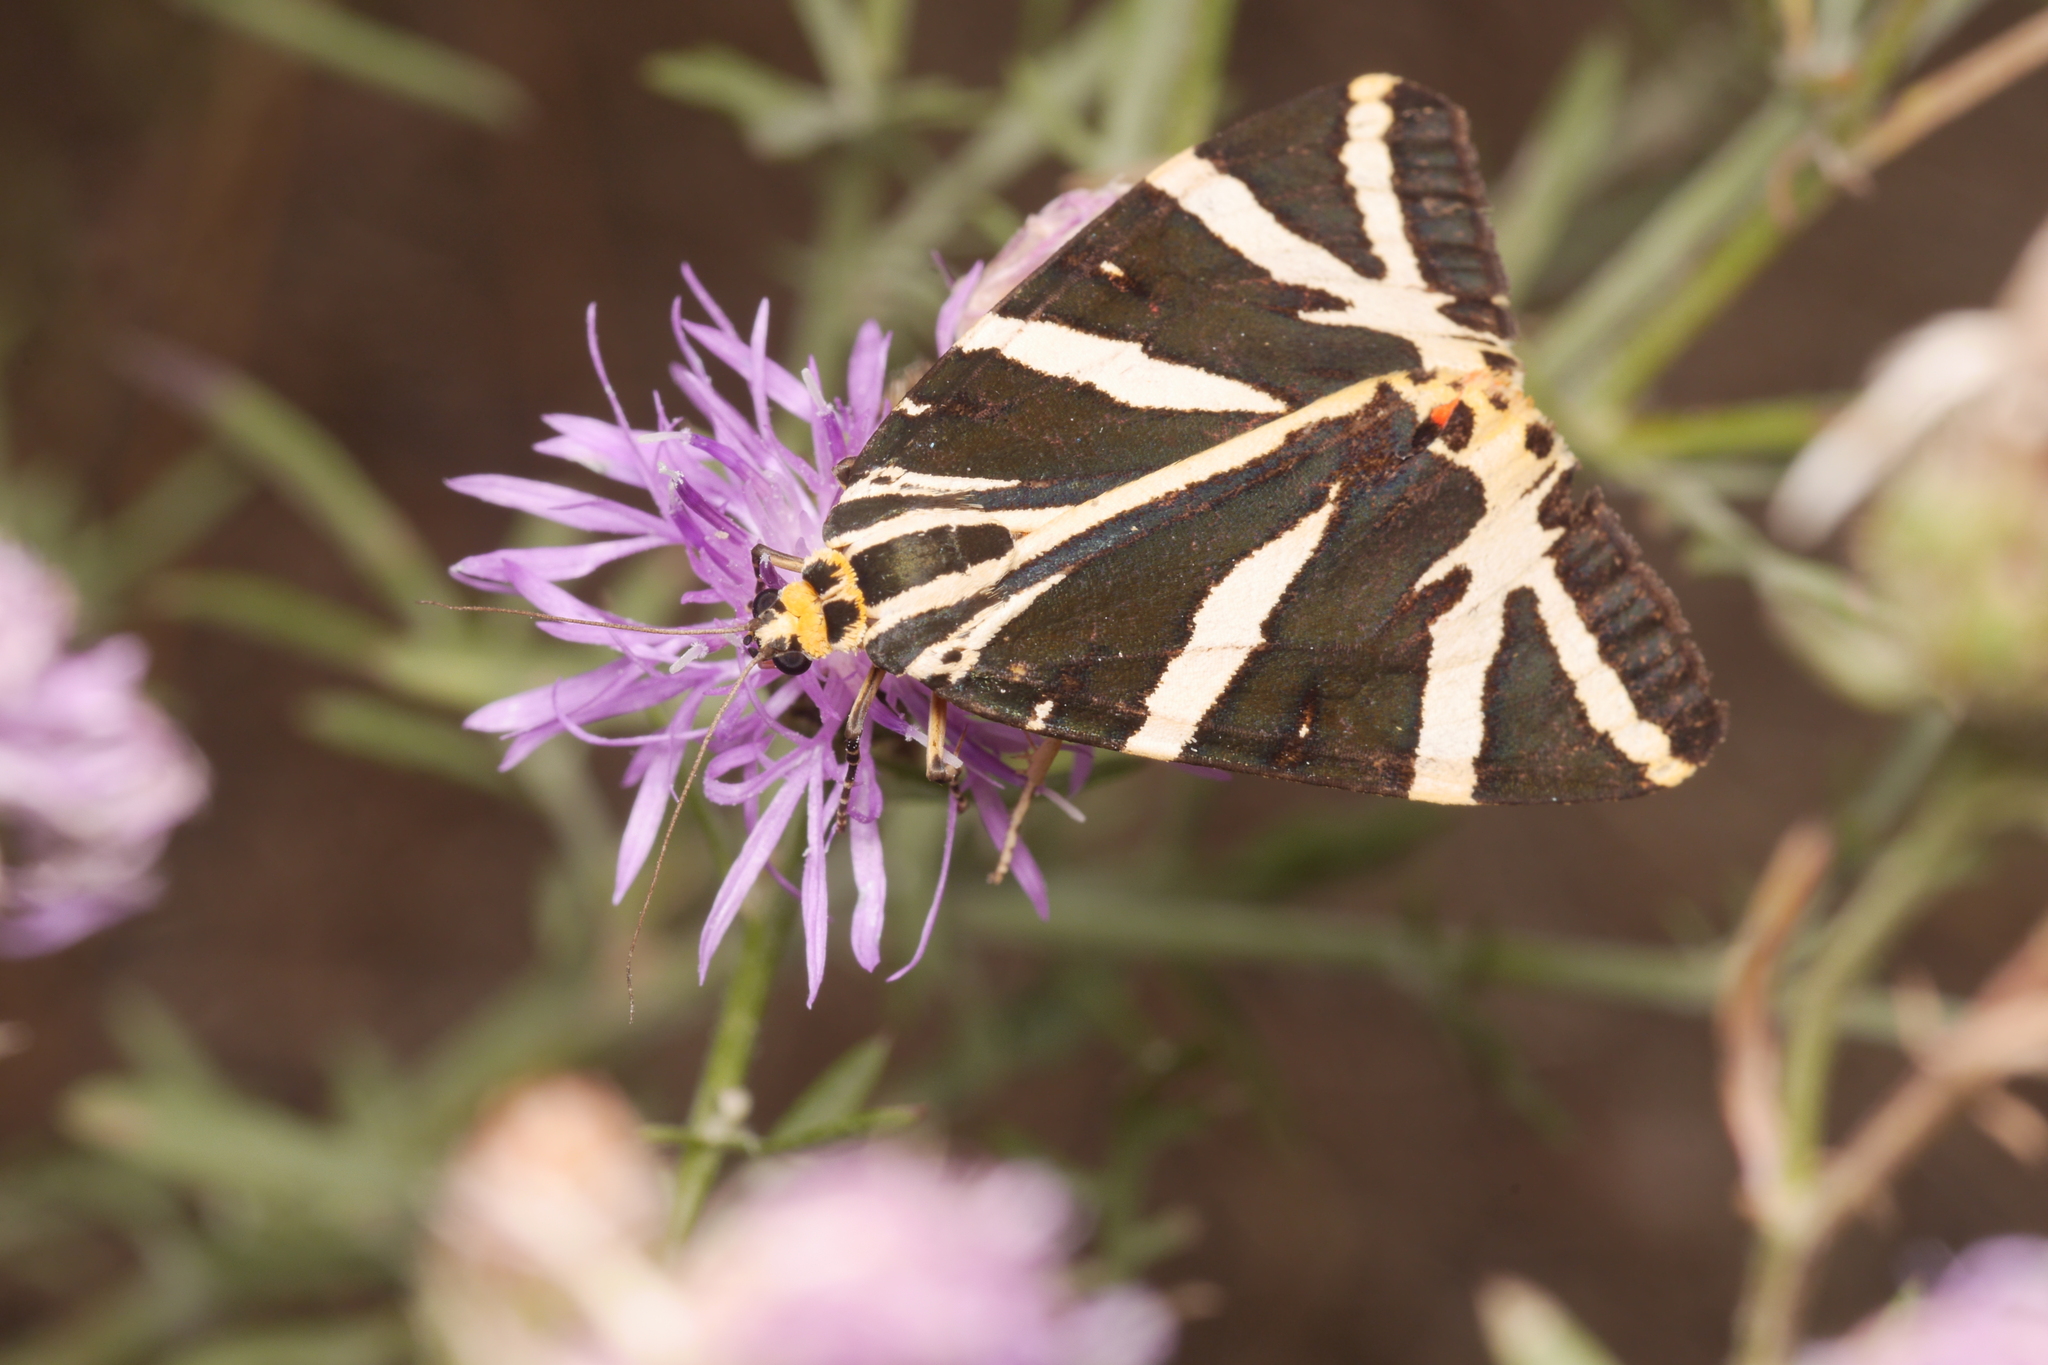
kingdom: Animalia
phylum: Arthropoda
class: Insecta
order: Lepidoptera
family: Erebidae
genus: Euplagia
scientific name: Euplagia quadripunctaria
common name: Jersey tiger
